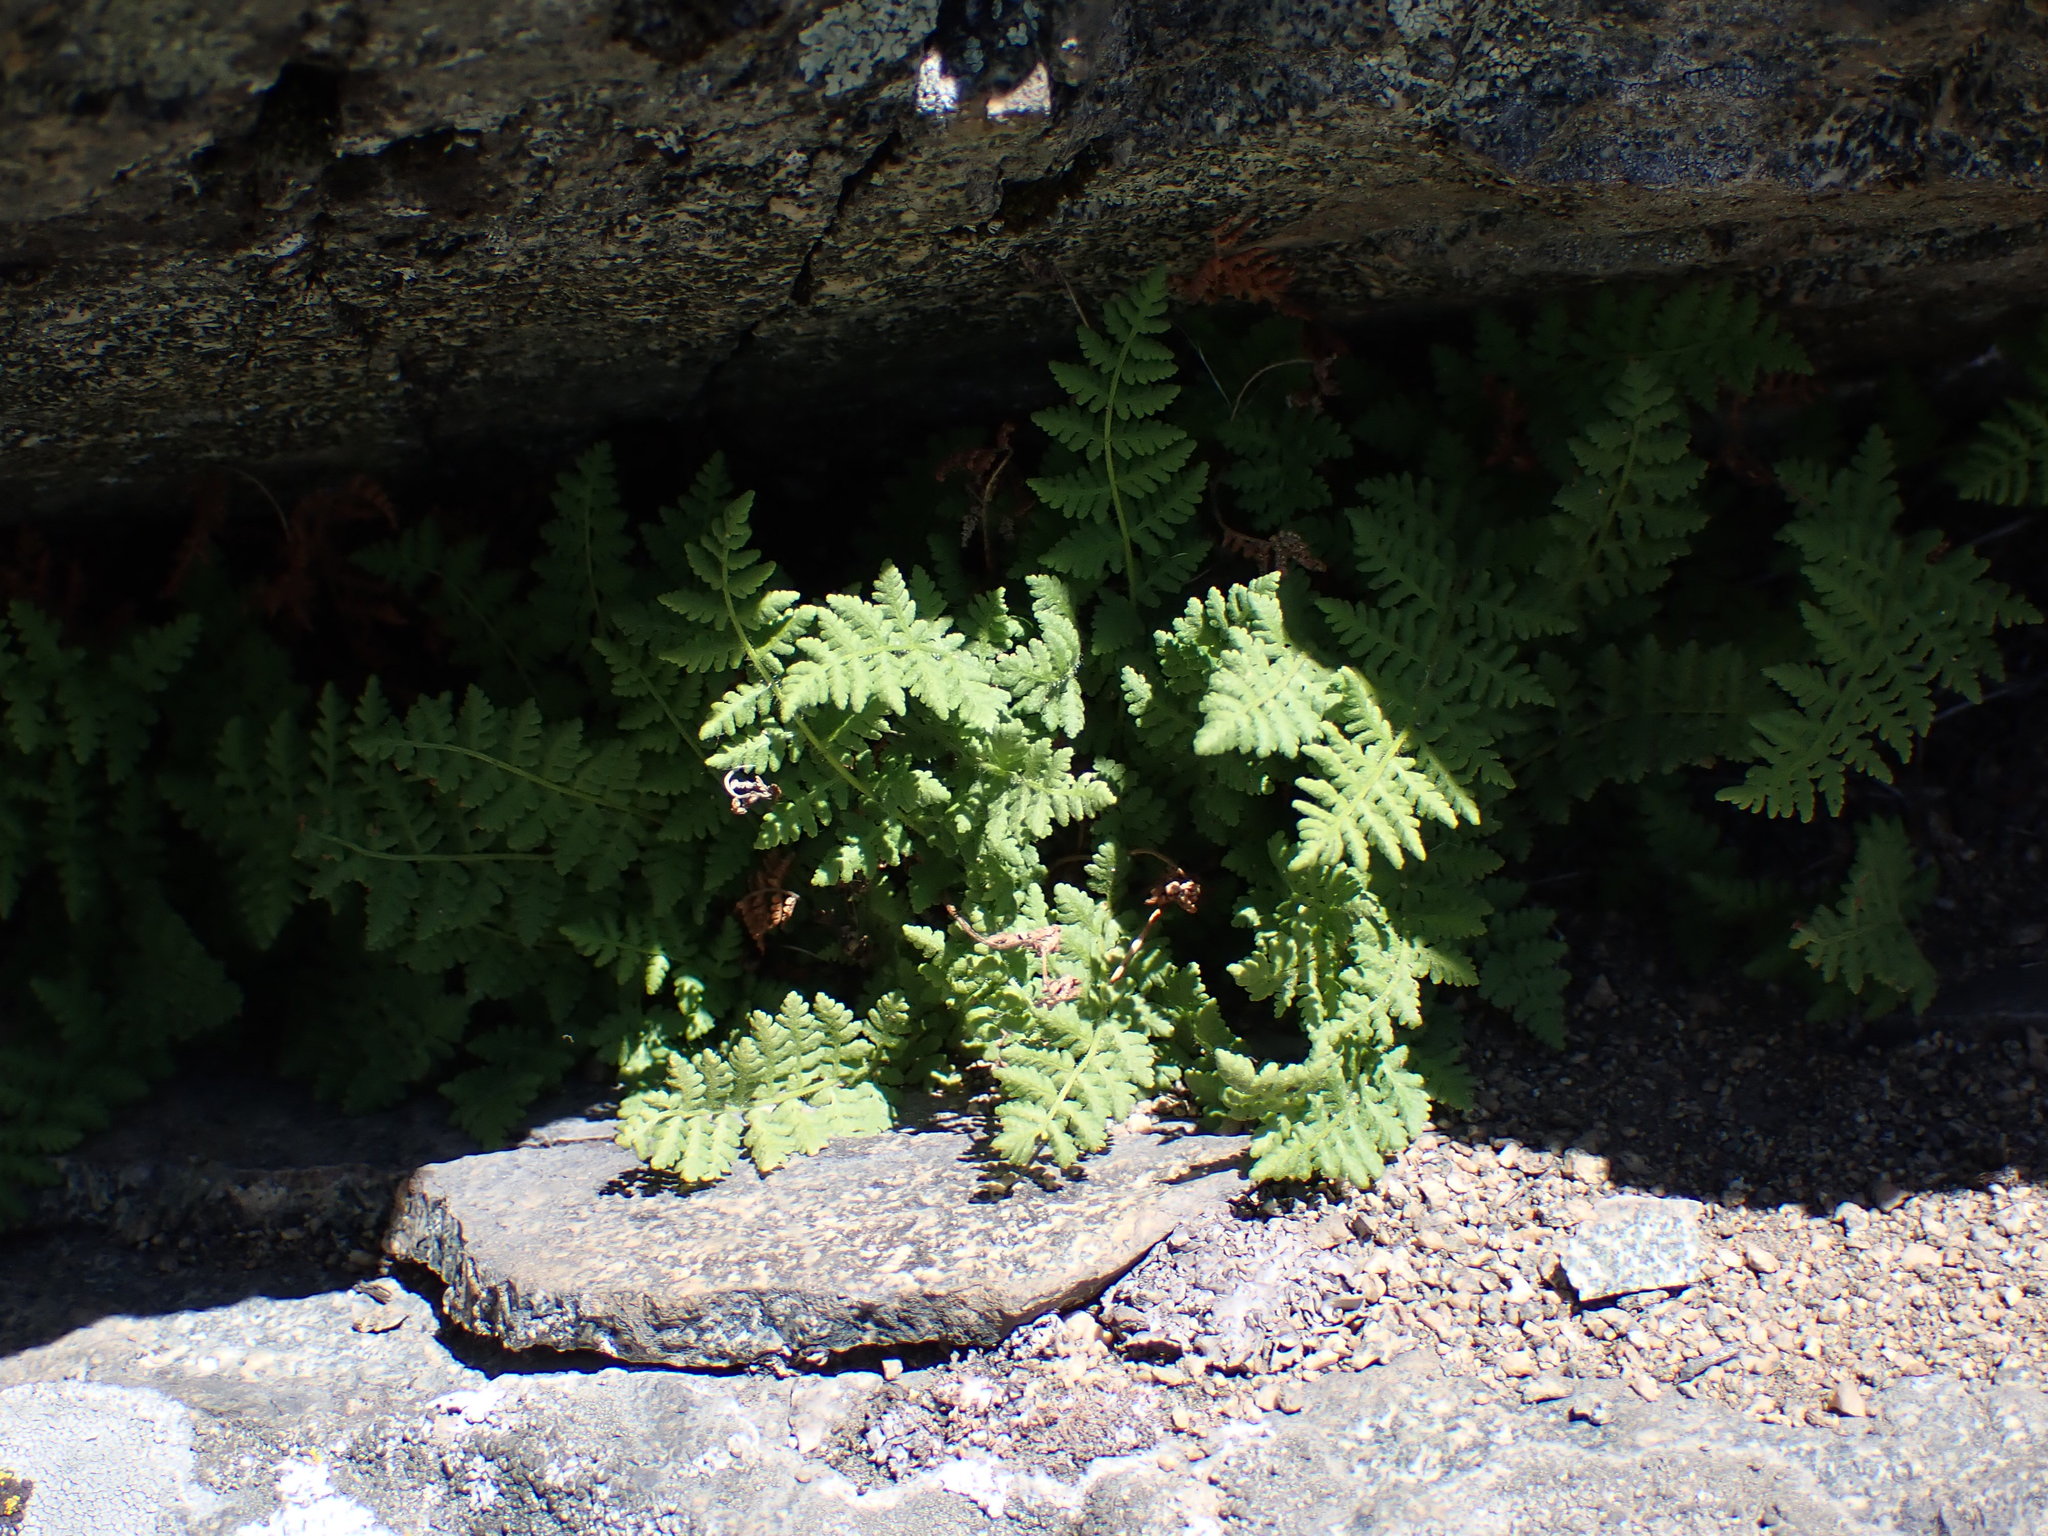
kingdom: Plantae
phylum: Tracheophyta
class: Polypodiopsida
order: Polypodiales
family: Woodsiaceae
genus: Physematium
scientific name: Physematium scopulinum
